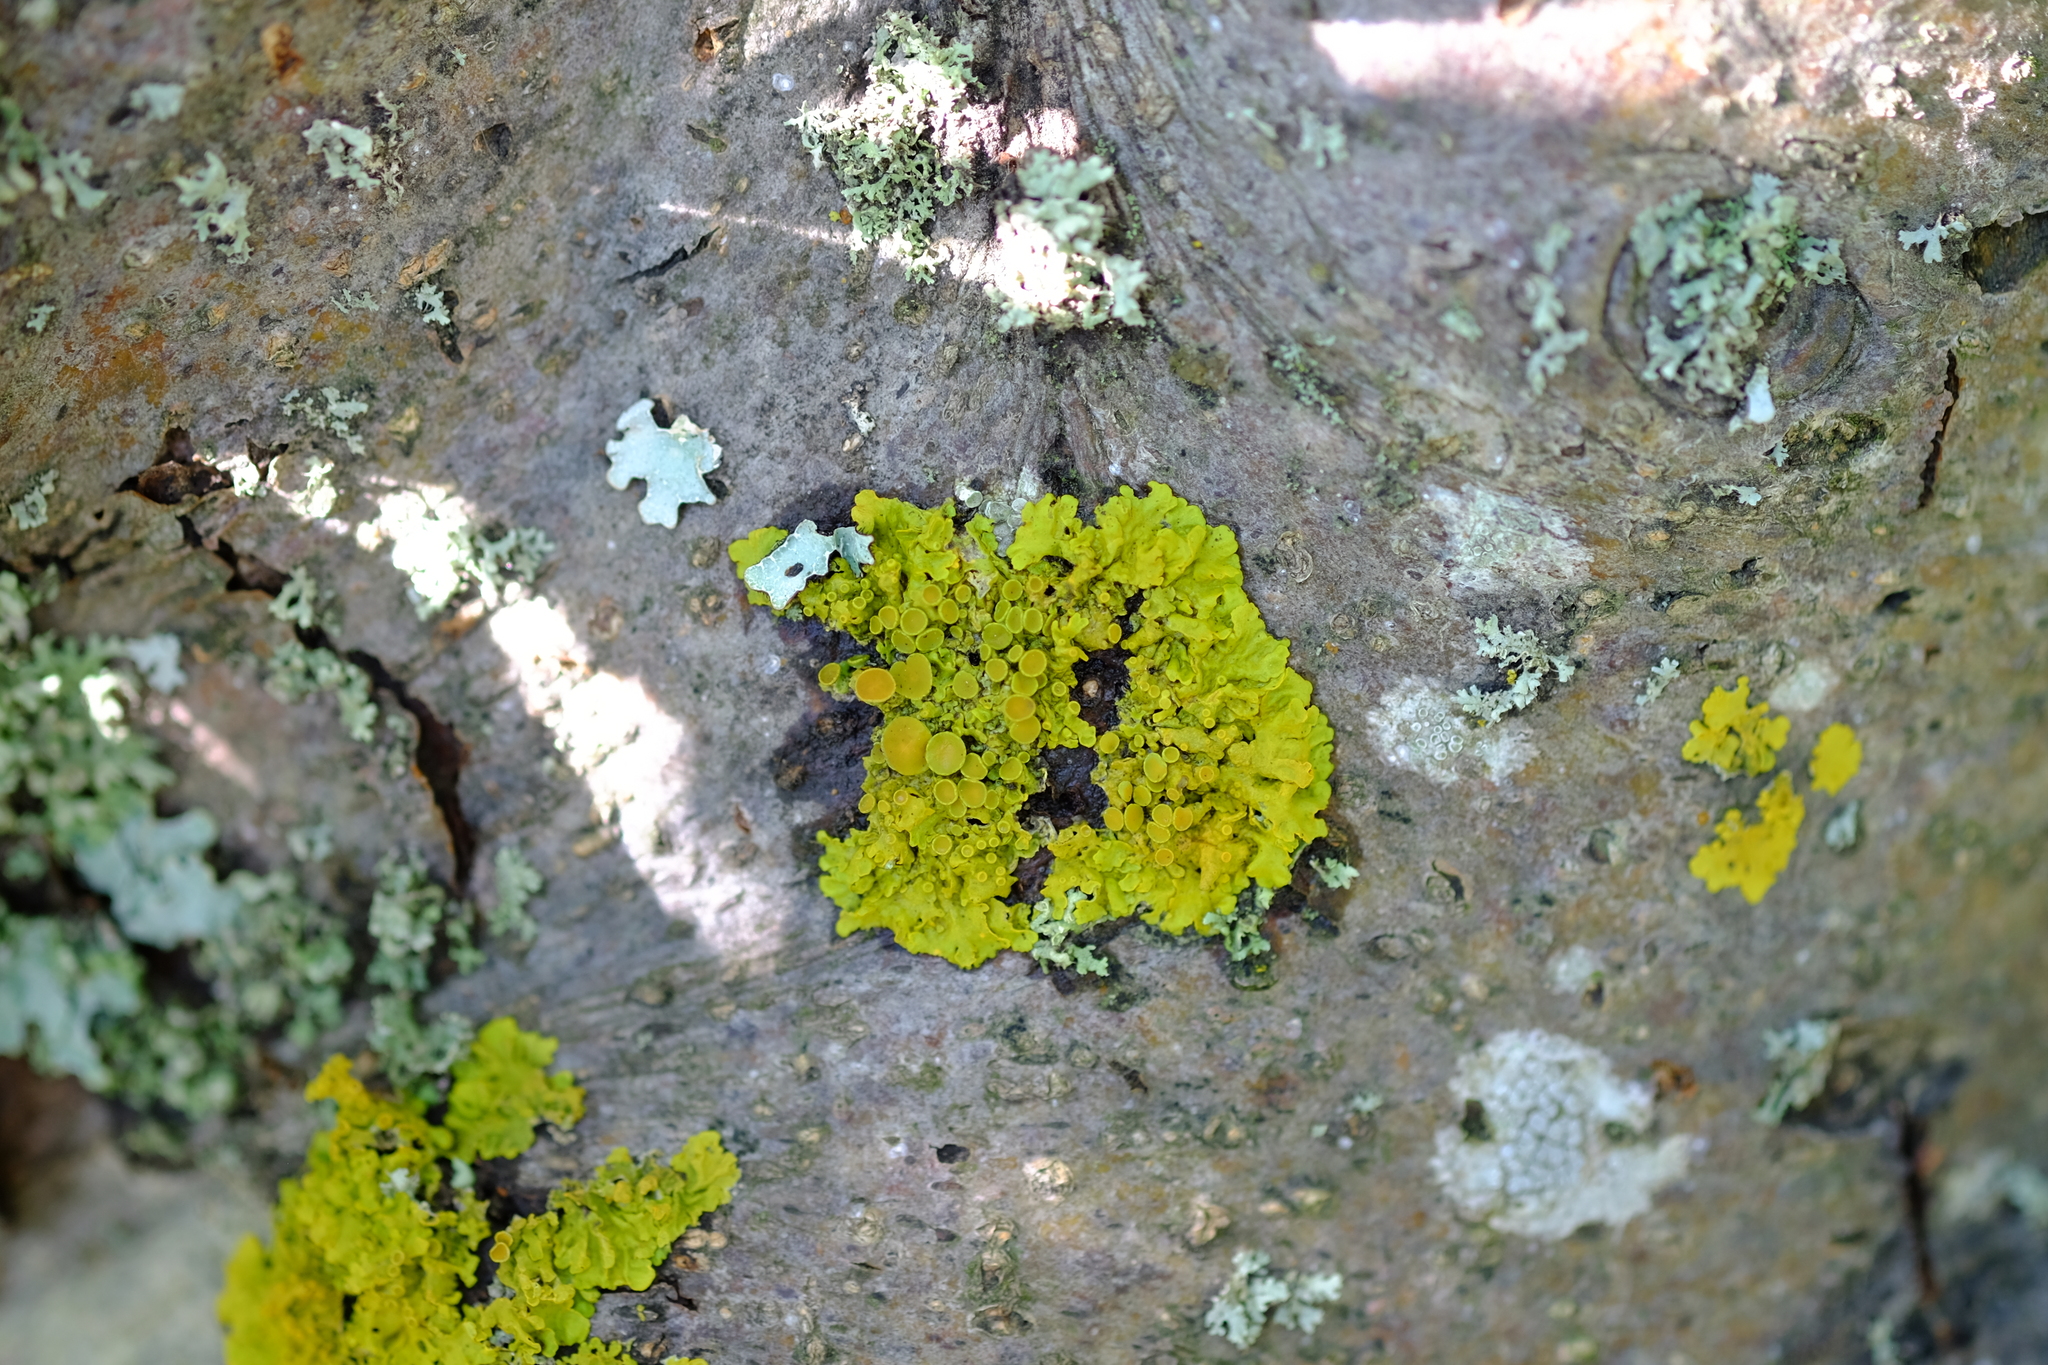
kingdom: Fungi
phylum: Ascomycota
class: Lecanoromycetes
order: Teloschistales
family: Teloschistaceae
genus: Xanthoria
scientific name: Xanthoria parietina
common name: Common orange lichen
